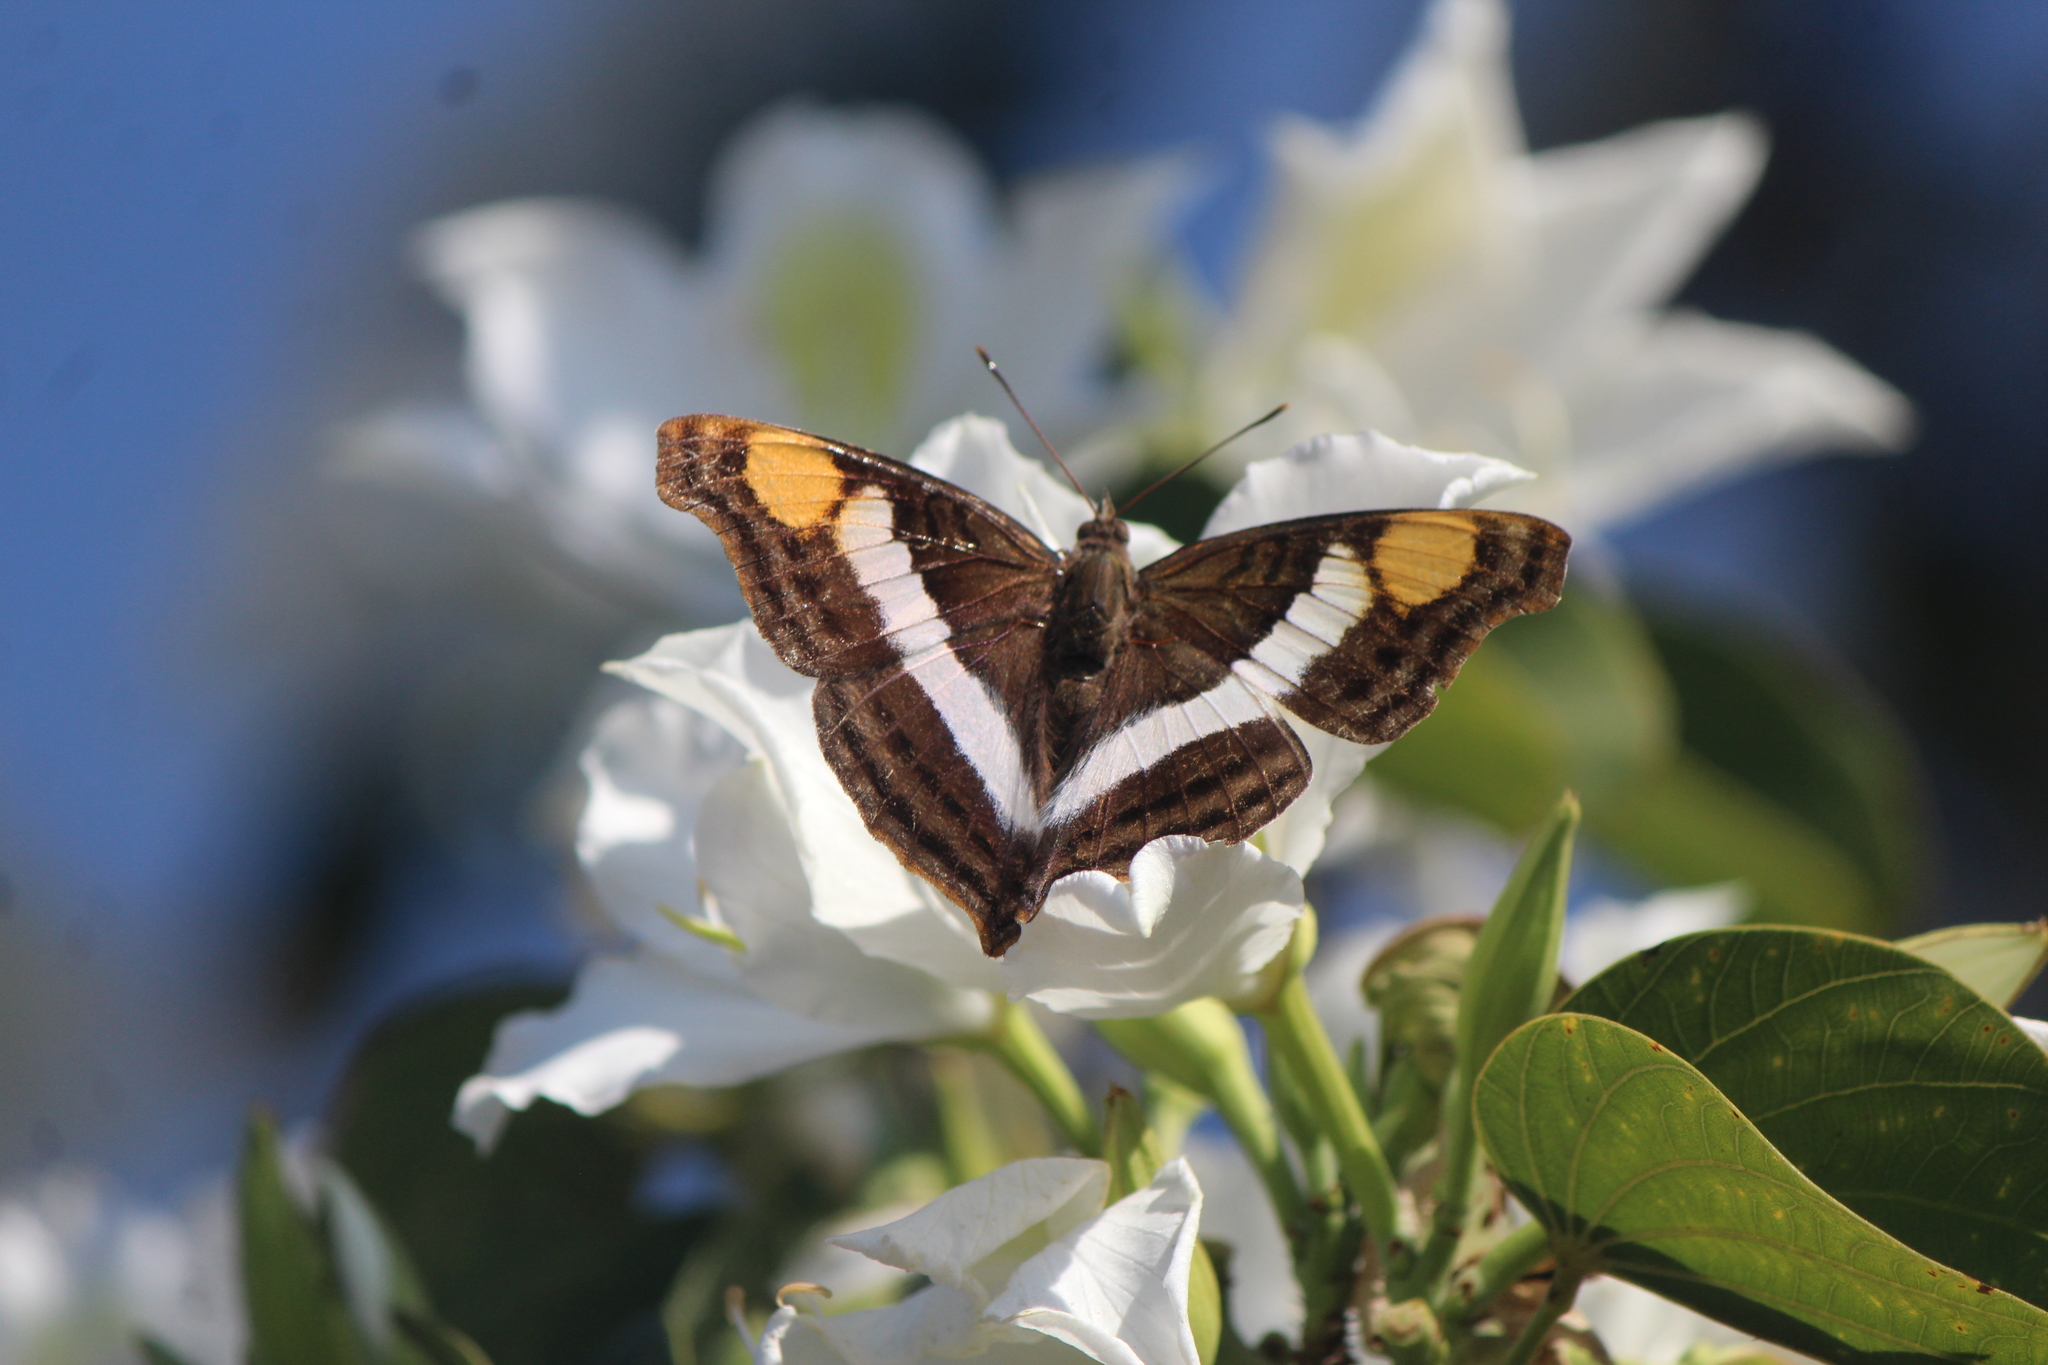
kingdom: Animalia
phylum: Arthropoda
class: Insecta
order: Lepidoptera
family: Nymphalidae
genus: Doxocopa
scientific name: Doxocopa laure
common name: Silver emperor
